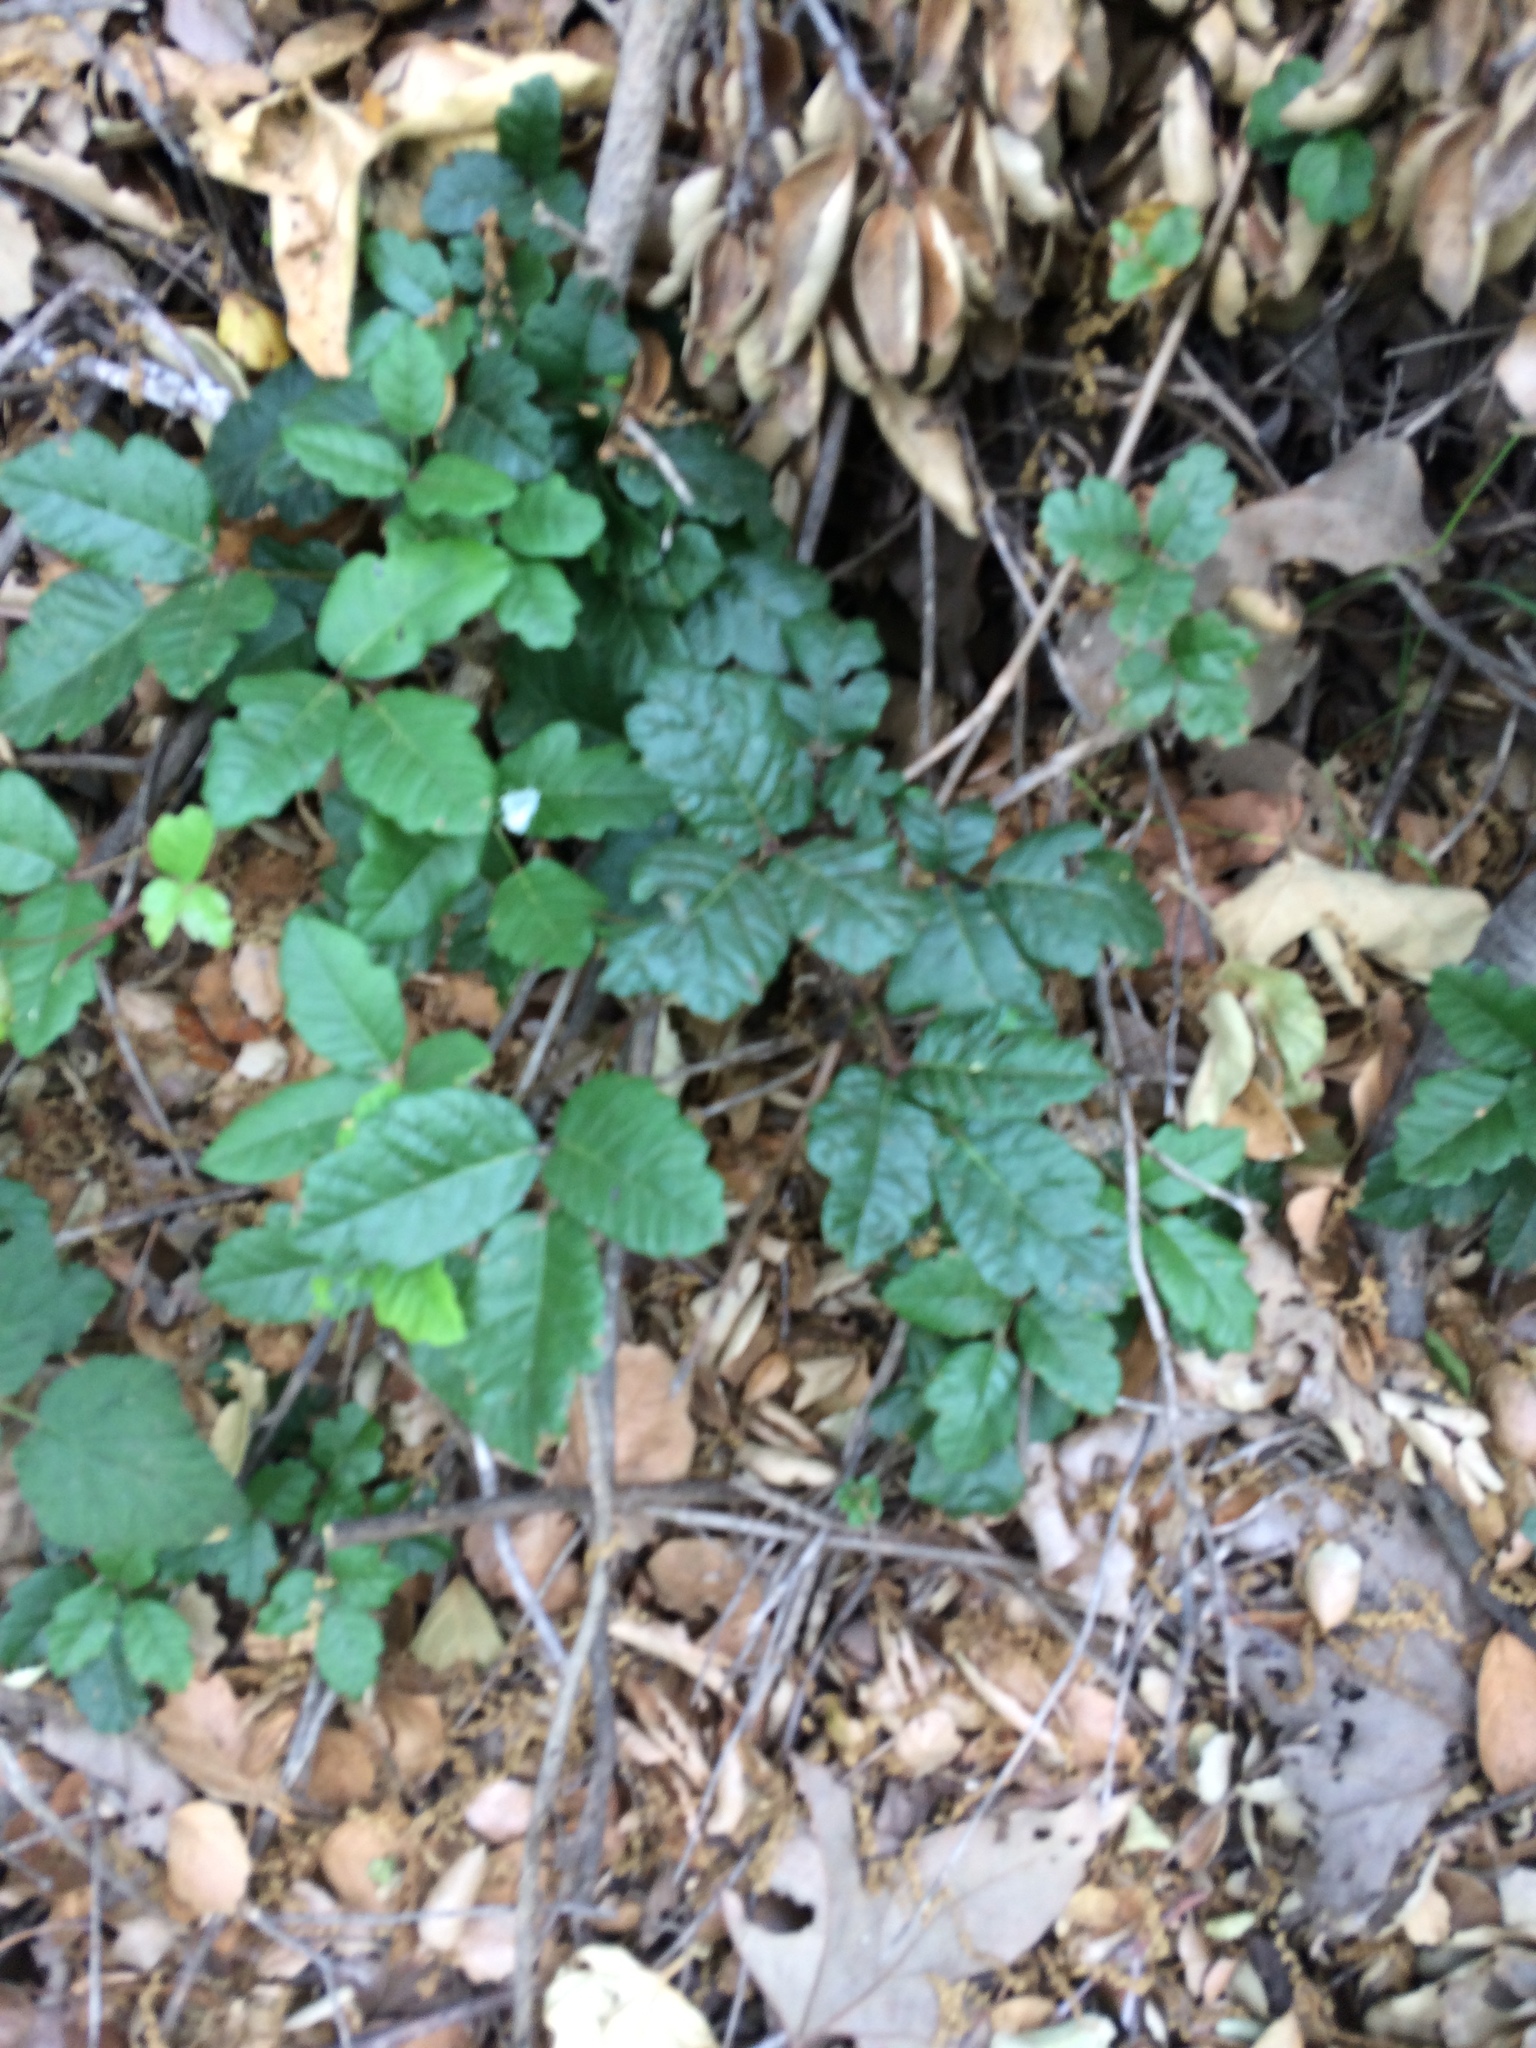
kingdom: Plantae
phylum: Tracheophyta
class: Magnoliopsida
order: Sapindales
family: Anacardiaceae
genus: Toxicodendron
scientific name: Toxicodendron diversilobum
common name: Pacific poison-oak
